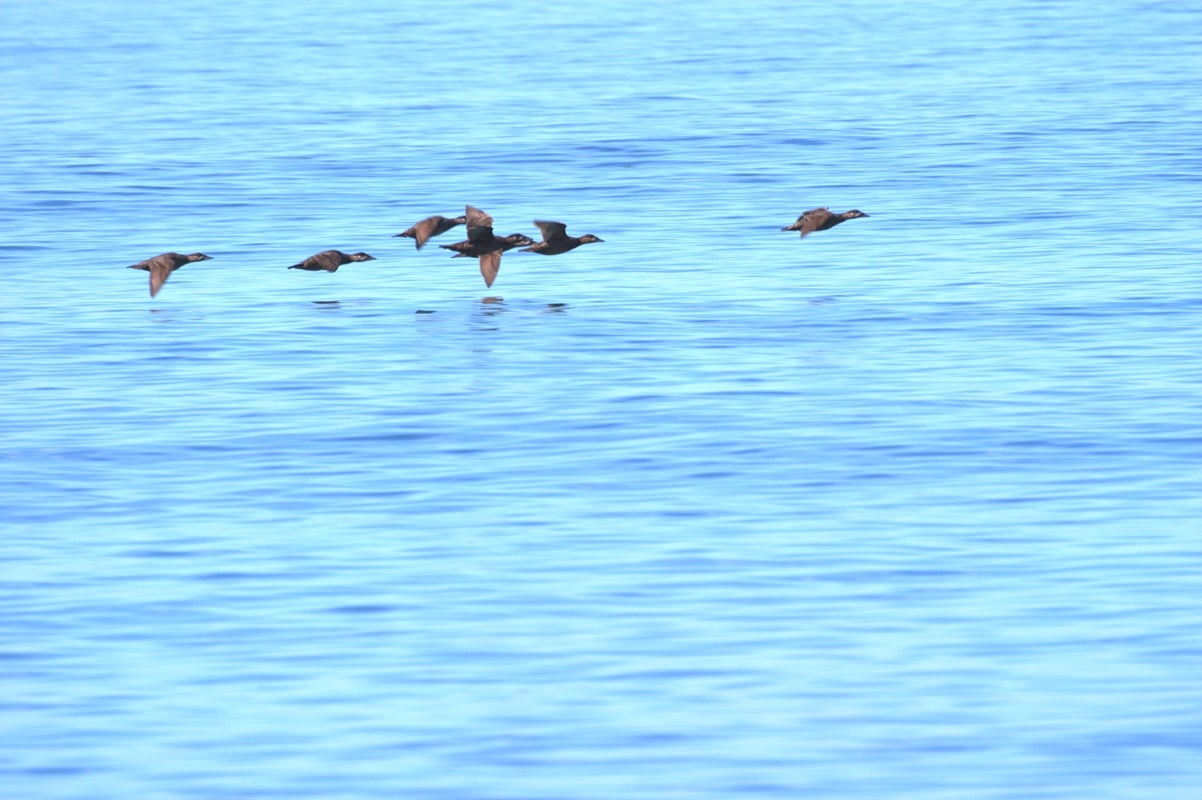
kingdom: Animalia
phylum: Chordata
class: Aves
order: Anseriformes
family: Anatidae
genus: Melanitta
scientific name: Melanitta perspicillata
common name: Surf scoter
